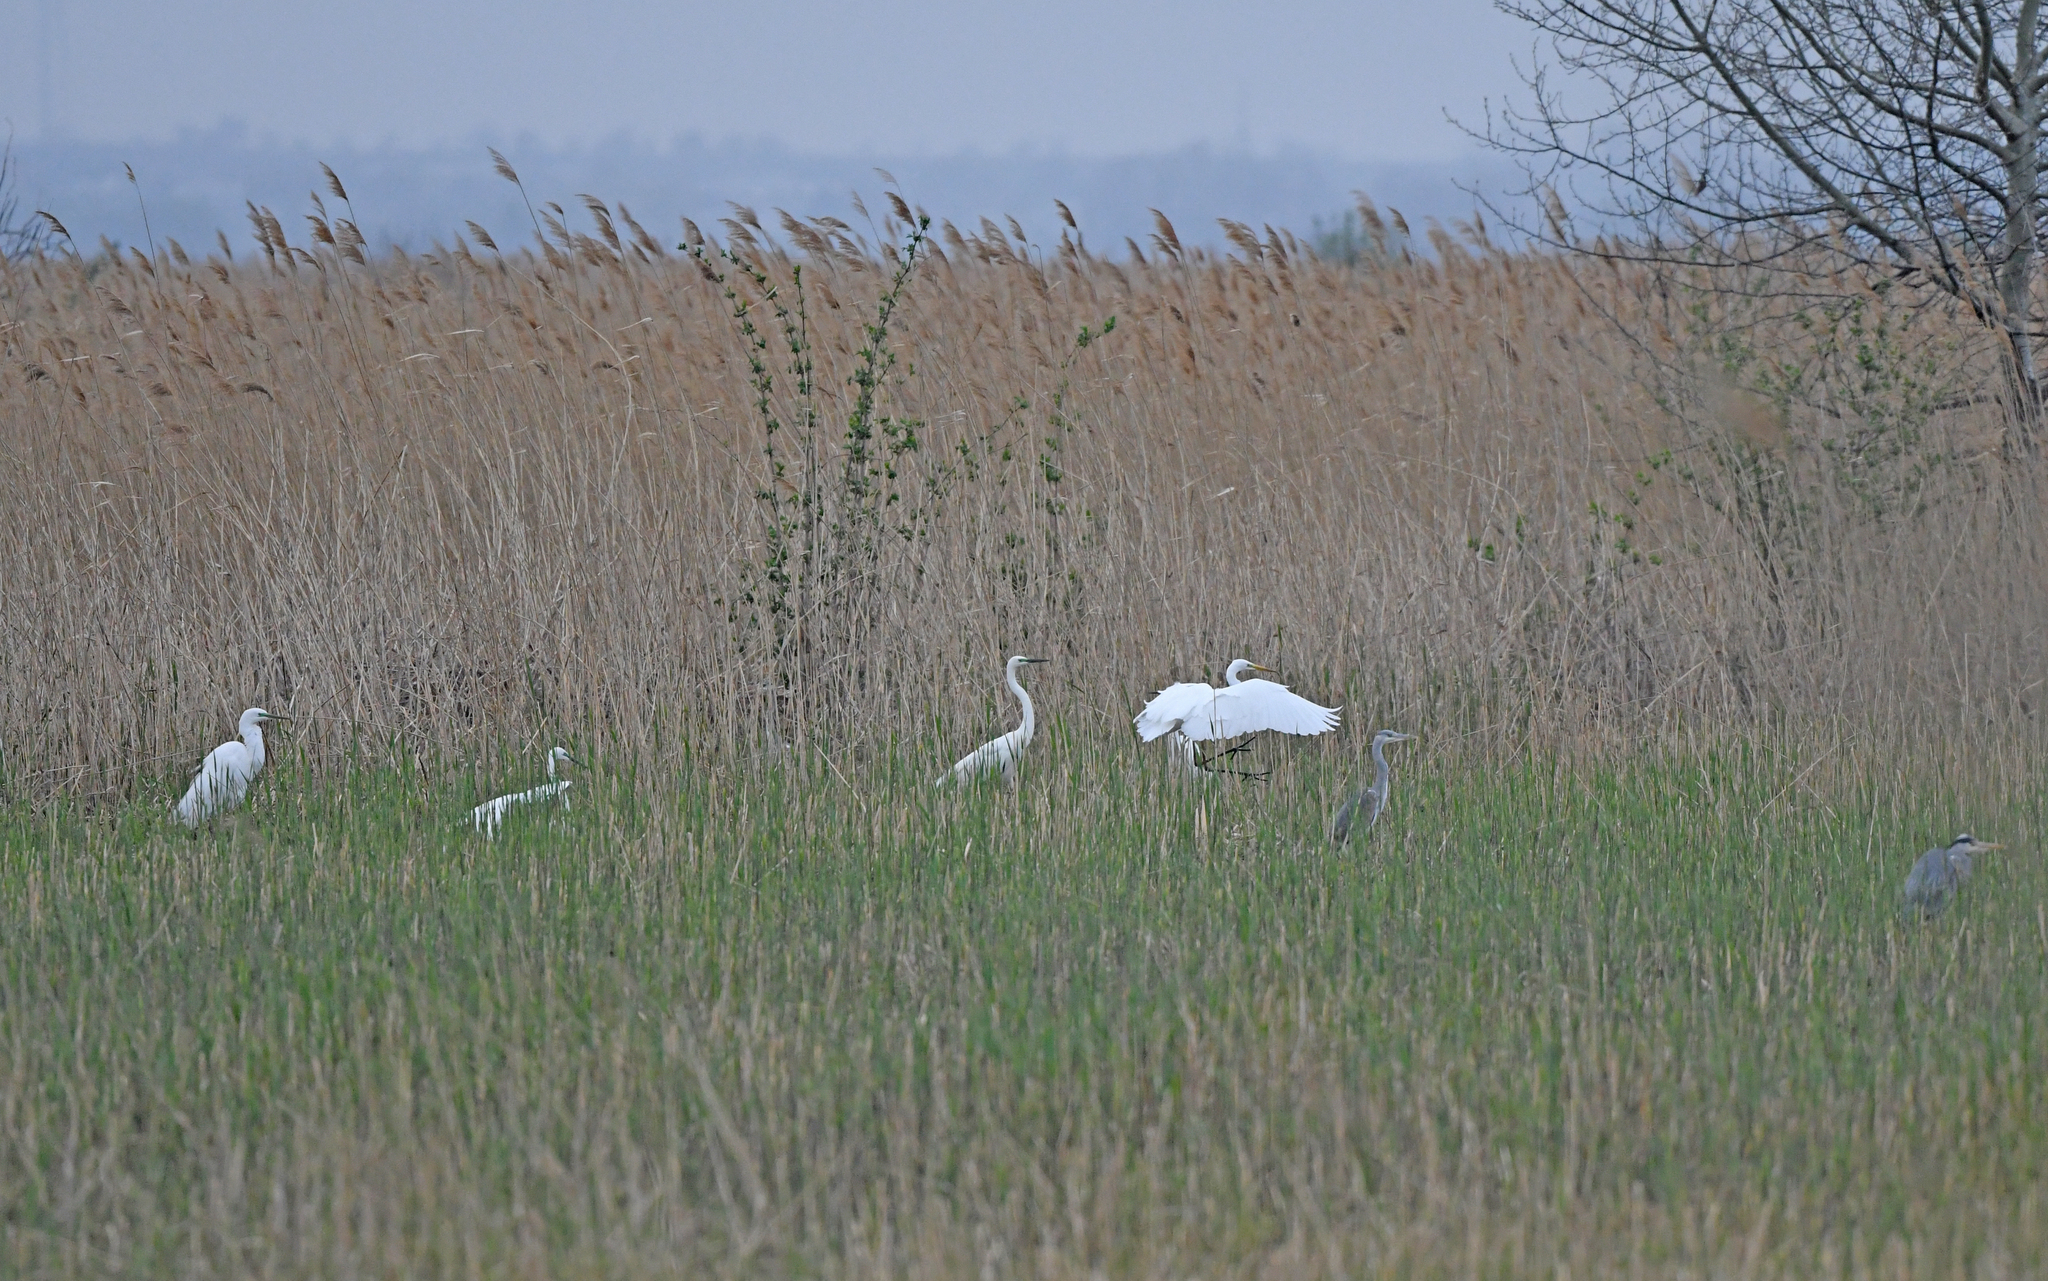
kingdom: Animalia
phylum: Chordata
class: Aves
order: Pelecaniformes
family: Ardeidae
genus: Ardea
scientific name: Ardea alba
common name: Great egret
